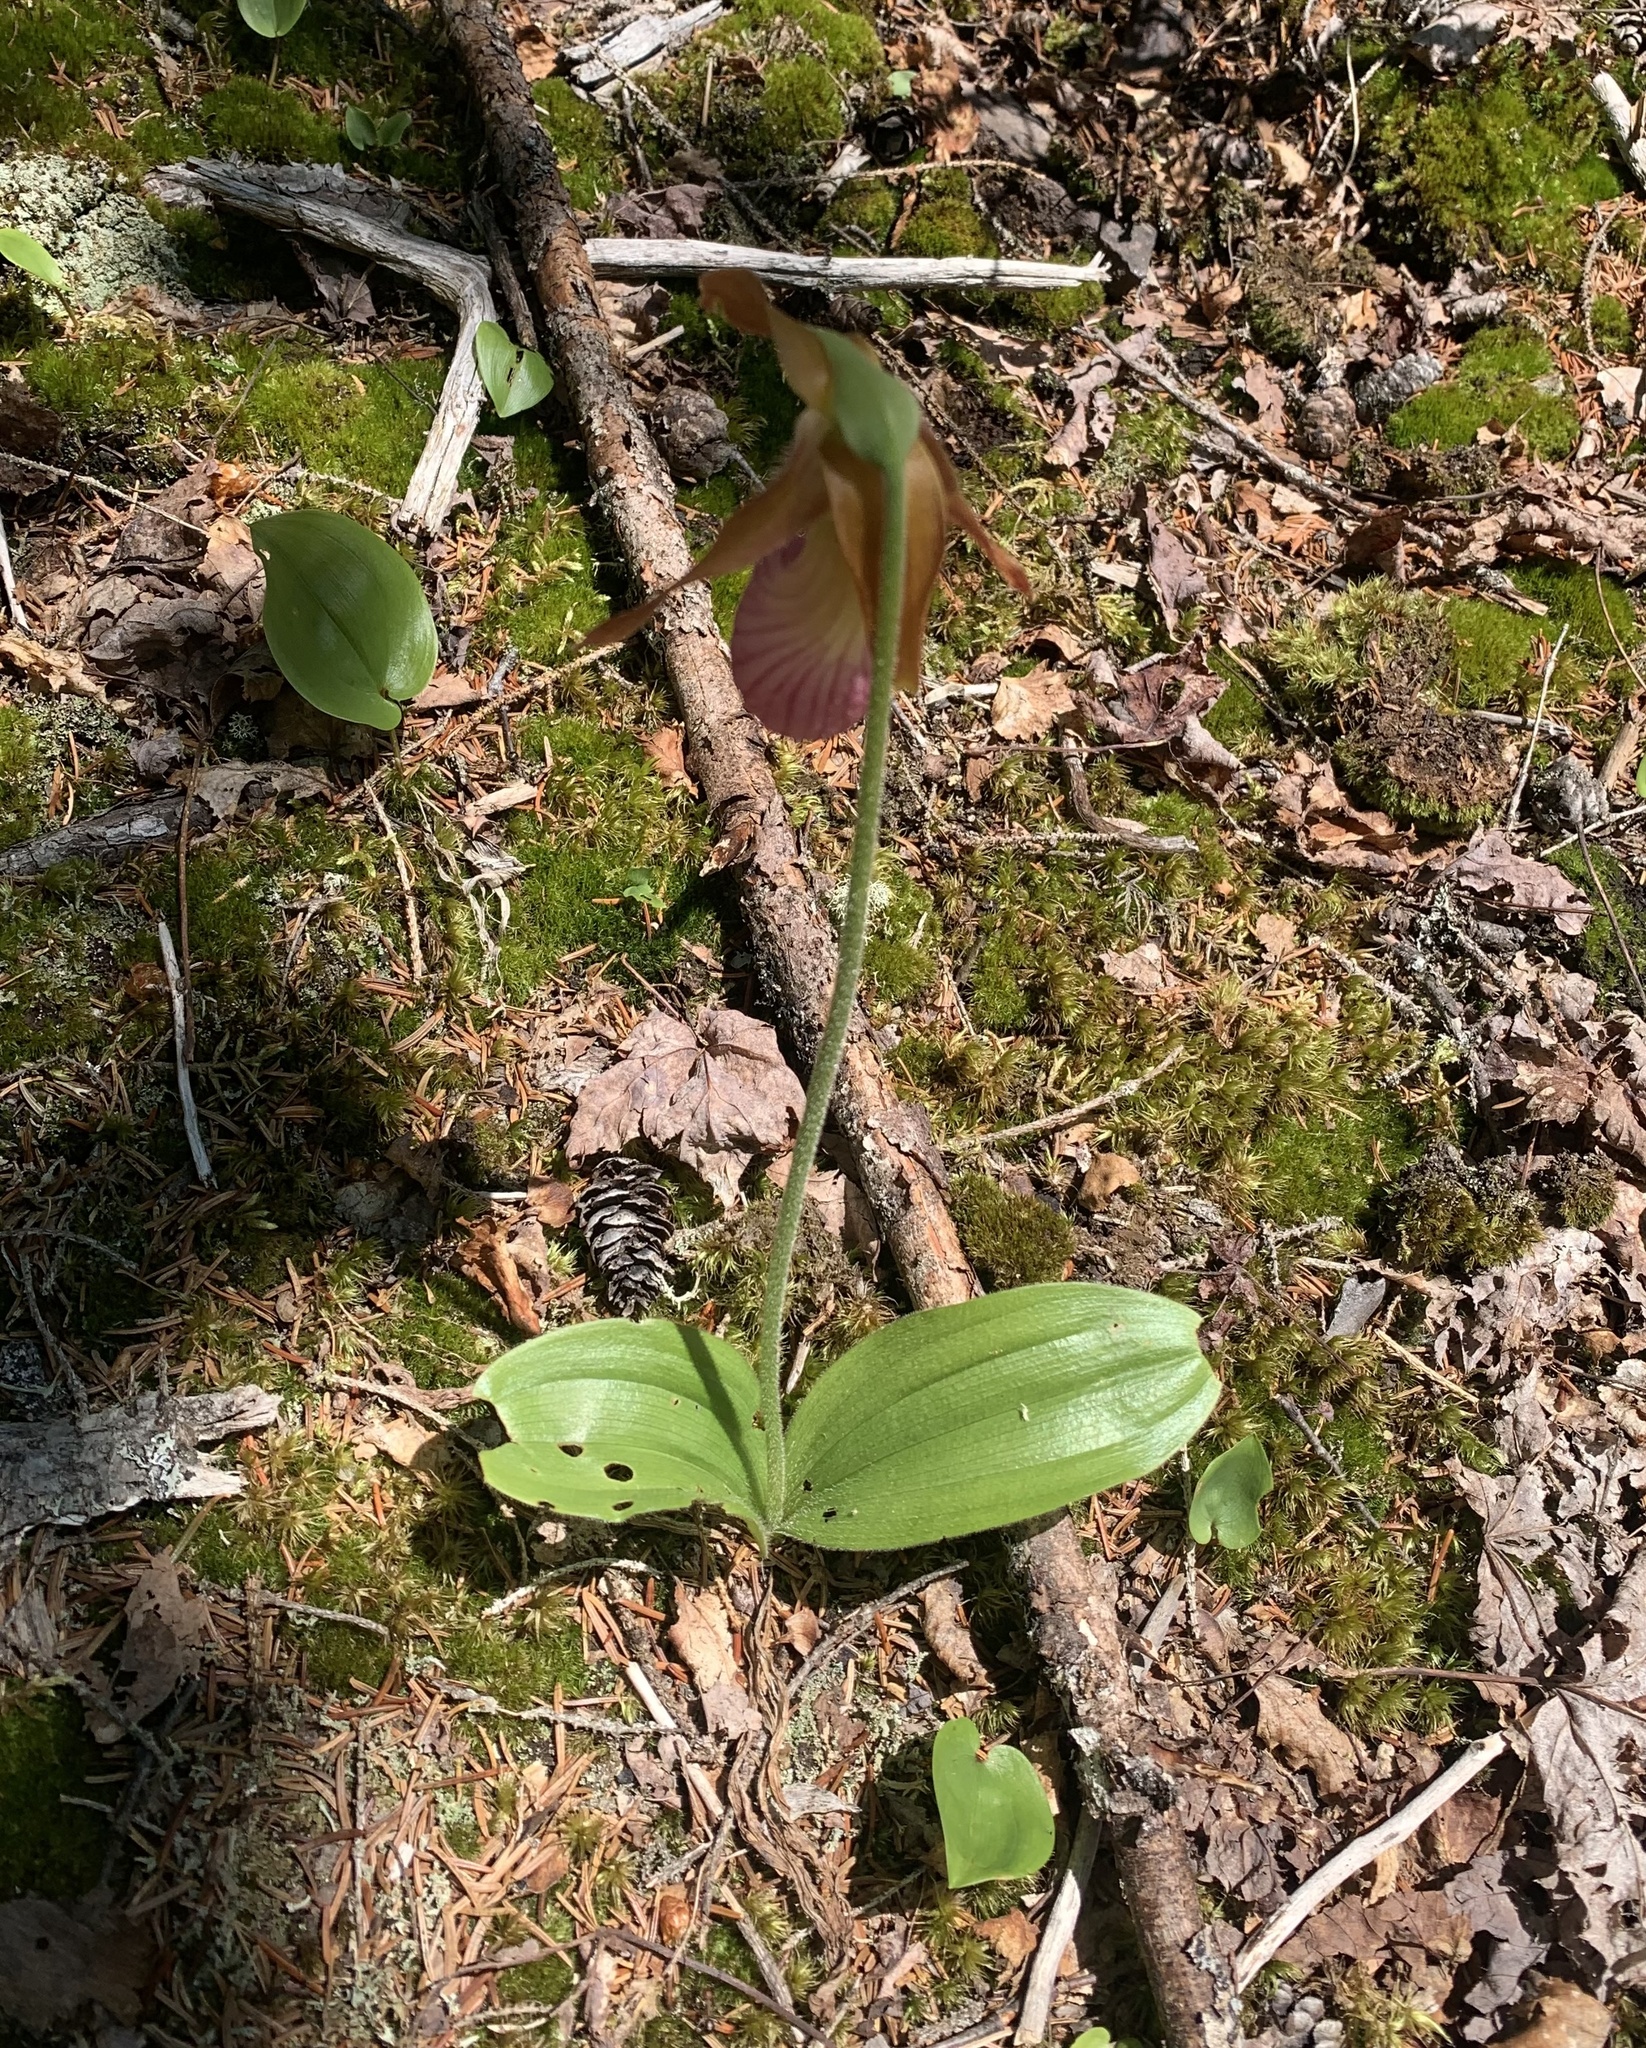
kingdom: Plantae
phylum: Tracheophyta
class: Liliopsida
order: Asparagales
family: Orchidaceae
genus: Cypripedium
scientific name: Cypripedium acaule
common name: Pink lady's-slipper
